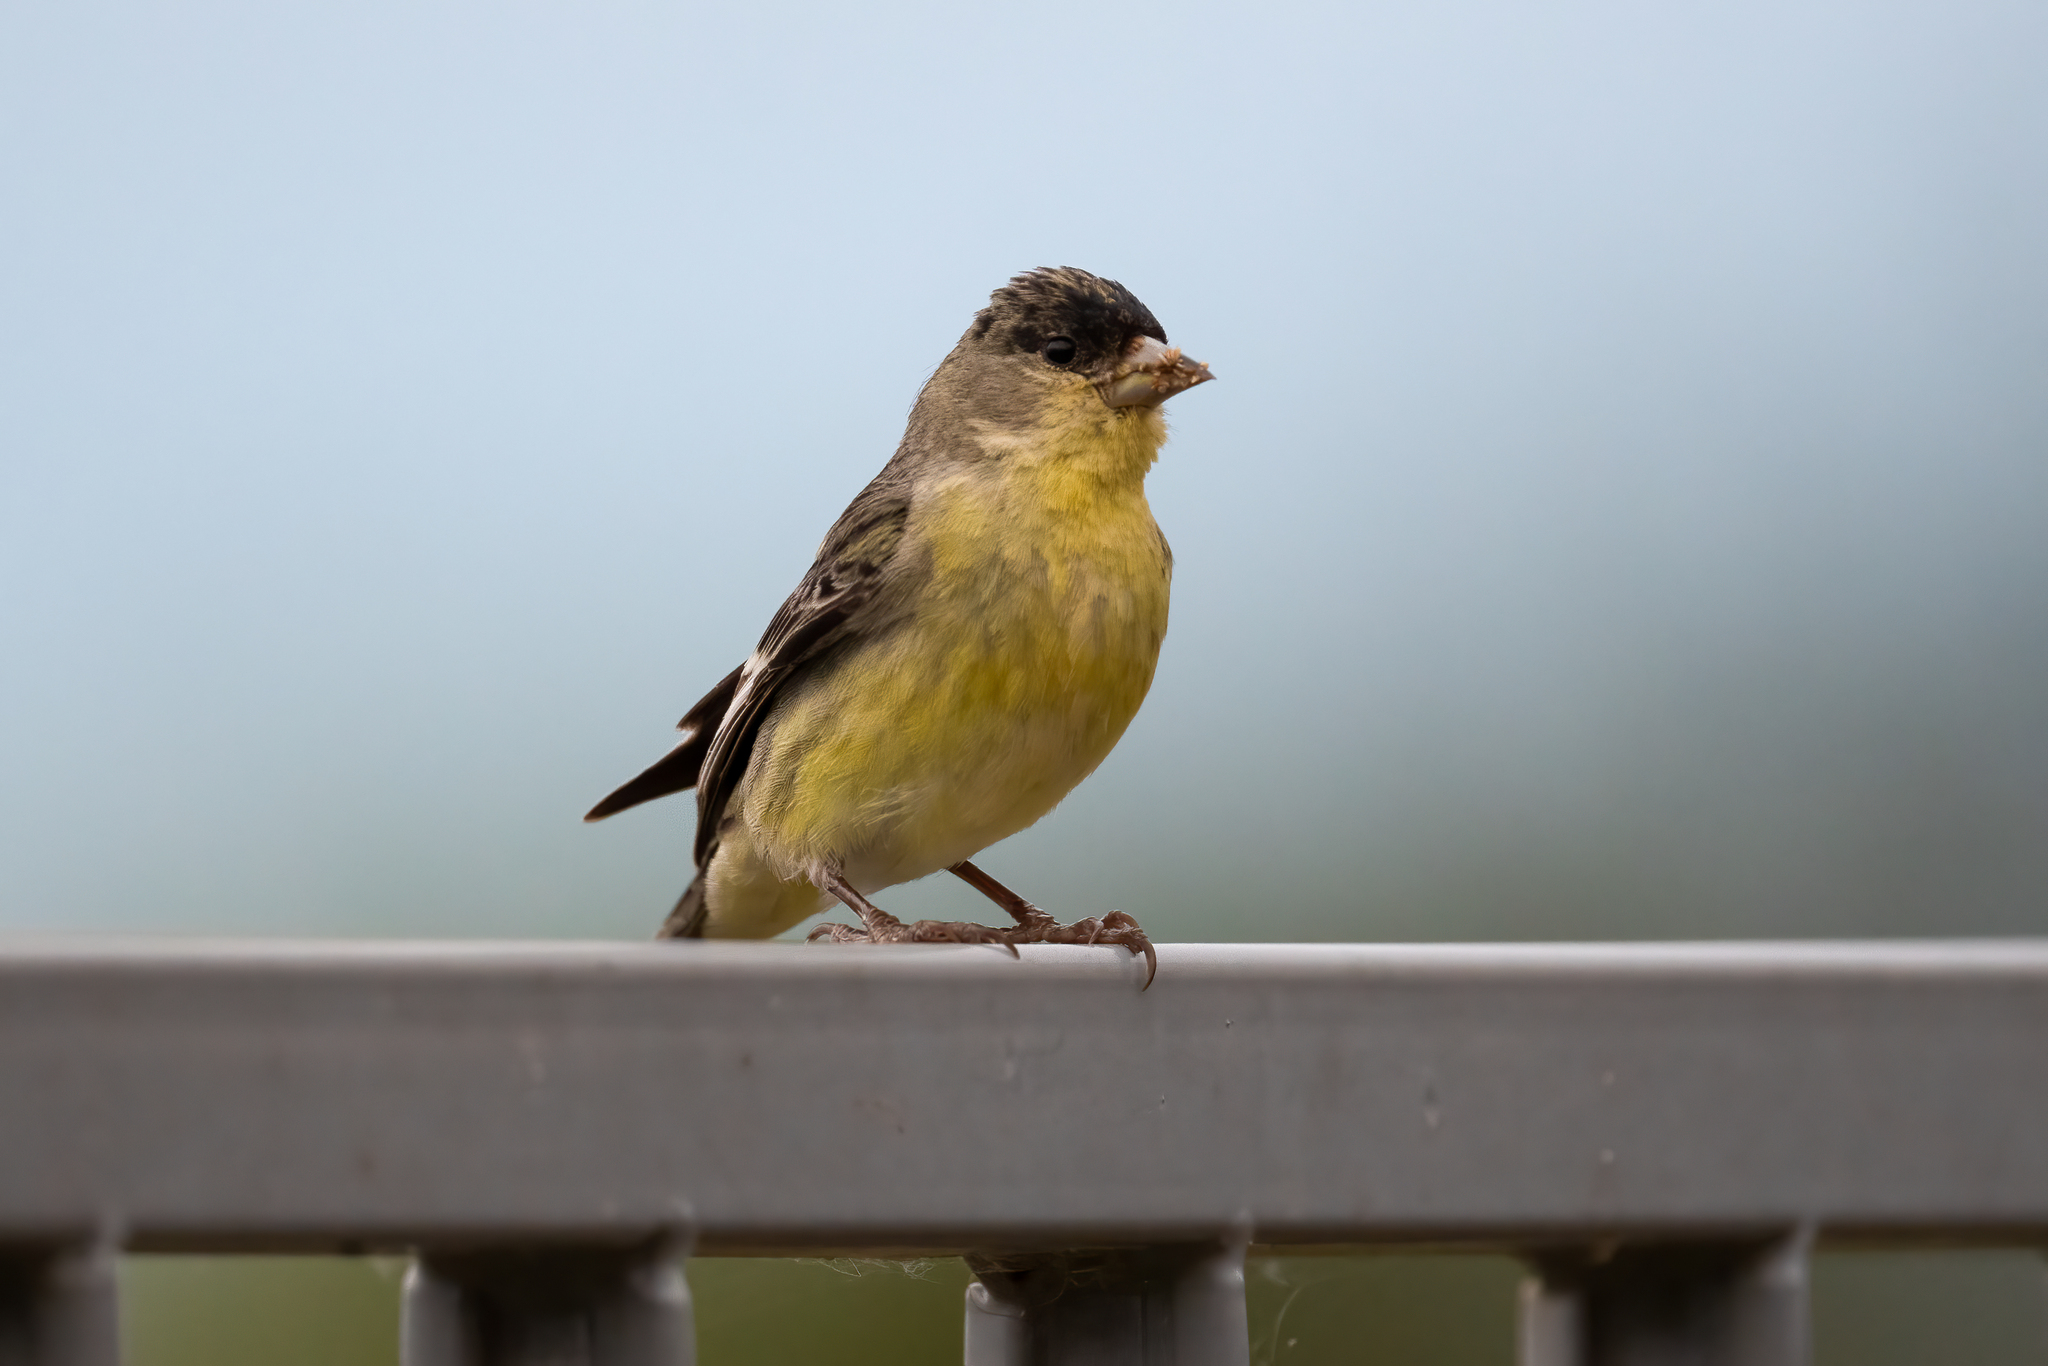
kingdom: Animalia
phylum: Chordata
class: Aves
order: Passeriformes
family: Fringillidae
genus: Spinus
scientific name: Spinus psaltria
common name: Lesser goldfinch
